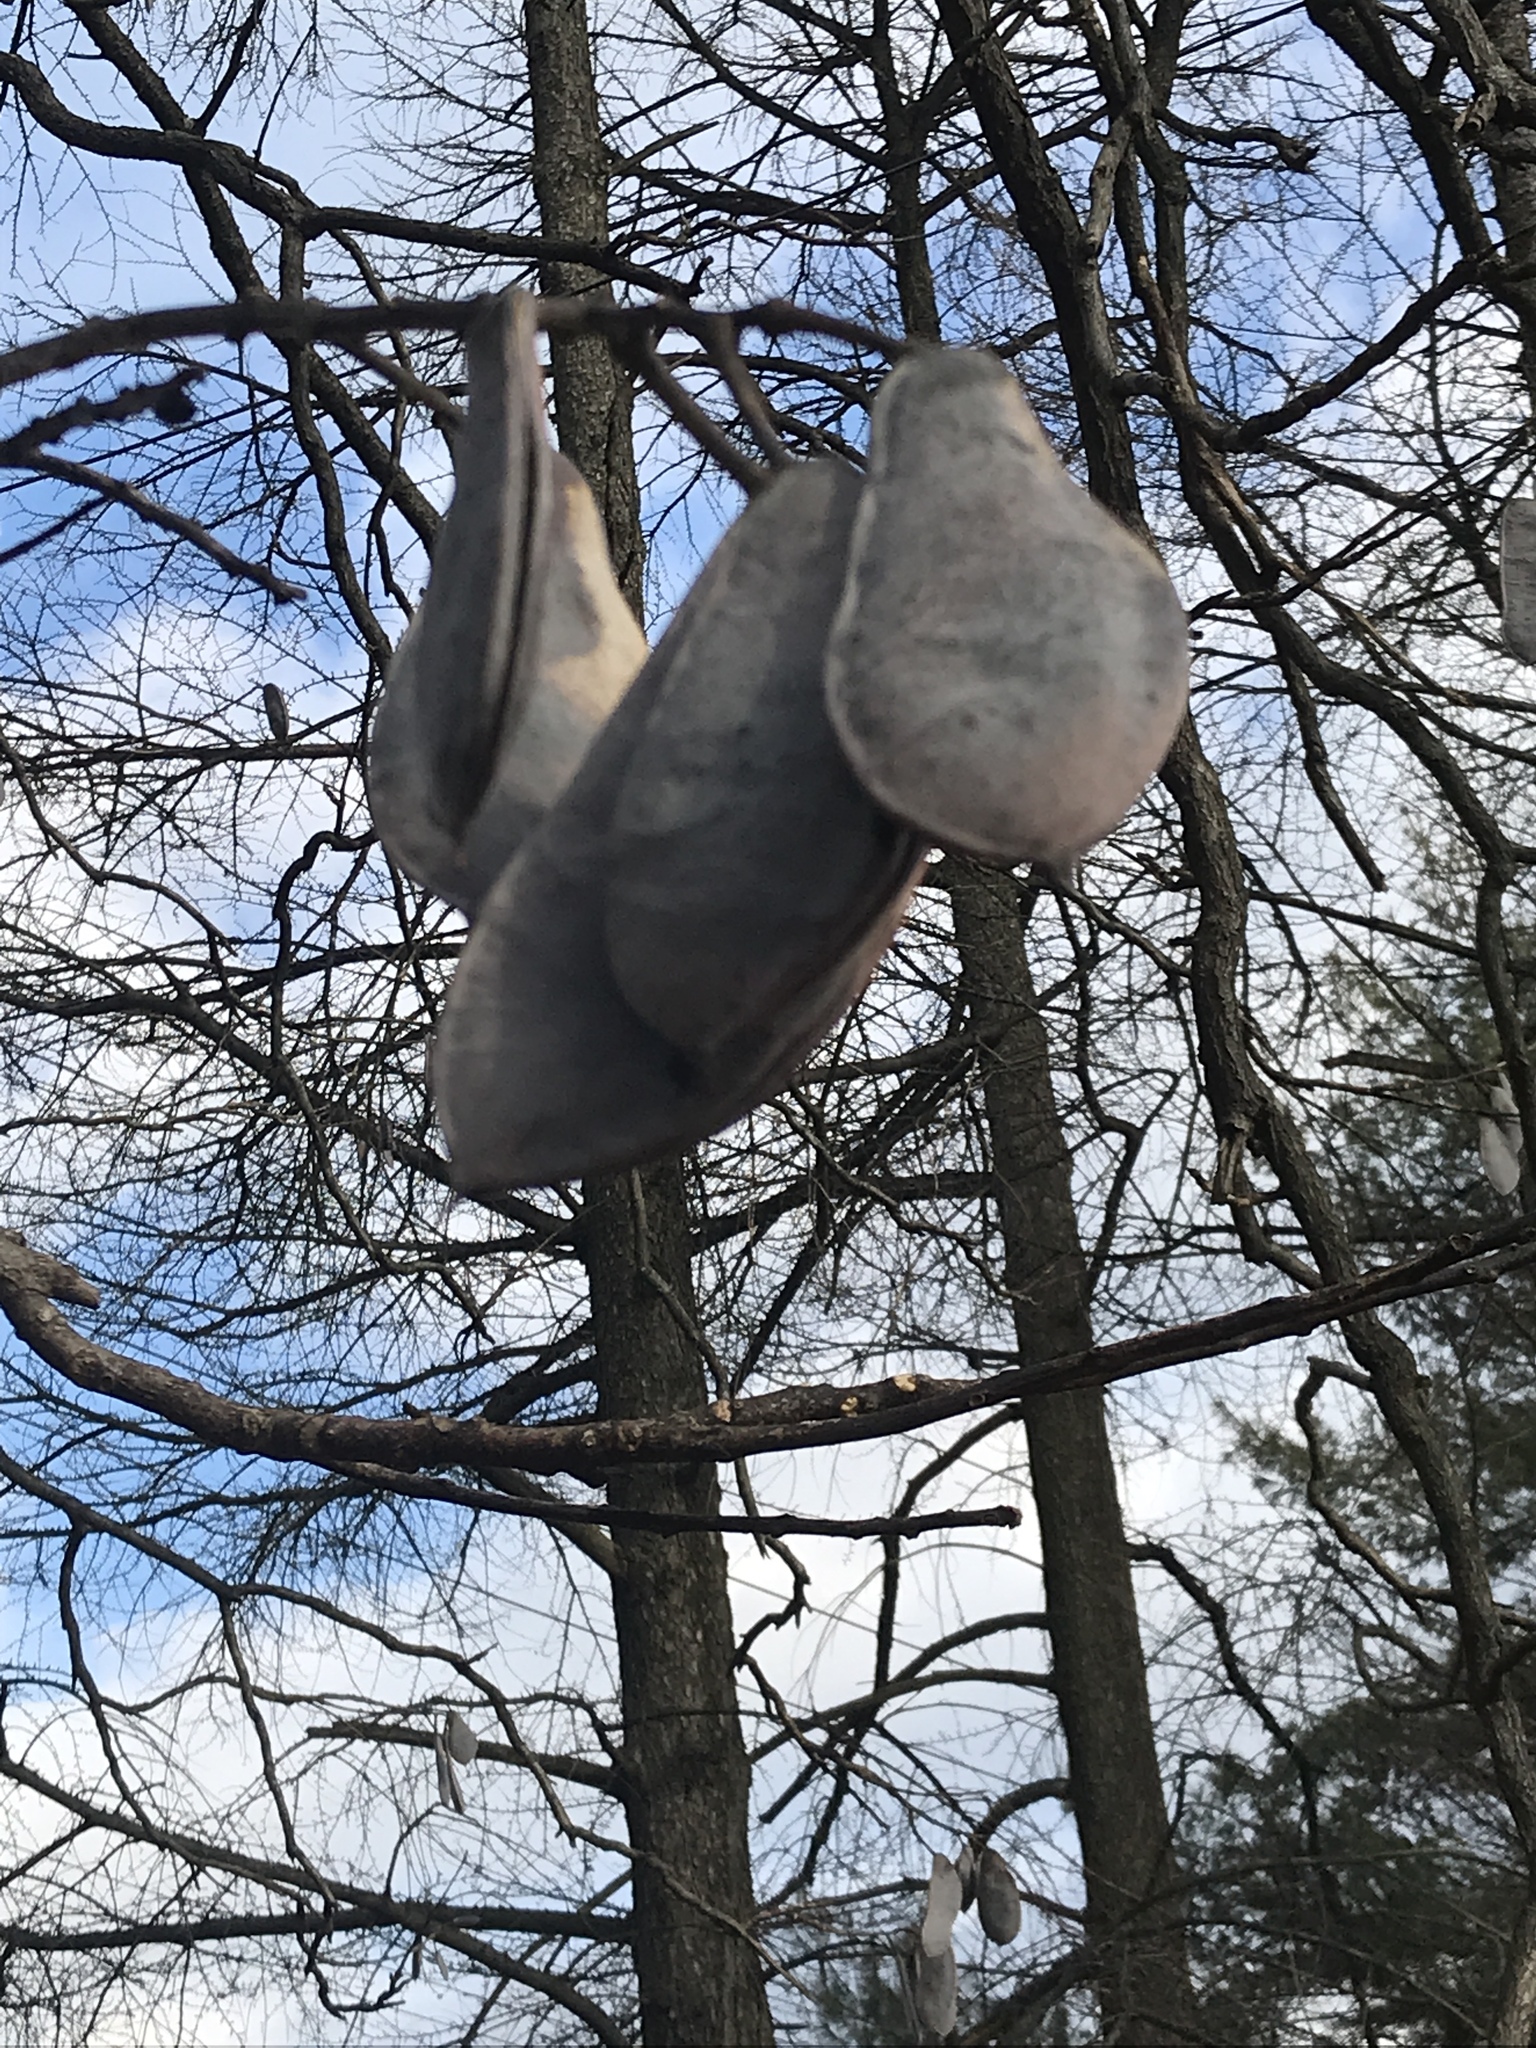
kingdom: Plantae
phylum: Tracheophyta
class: Magnoliopsida
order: Fabales
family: Fabaceae
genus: Gymnocladus
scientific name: Gymnocladus dioicus
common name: Kentucky coffee-tree
